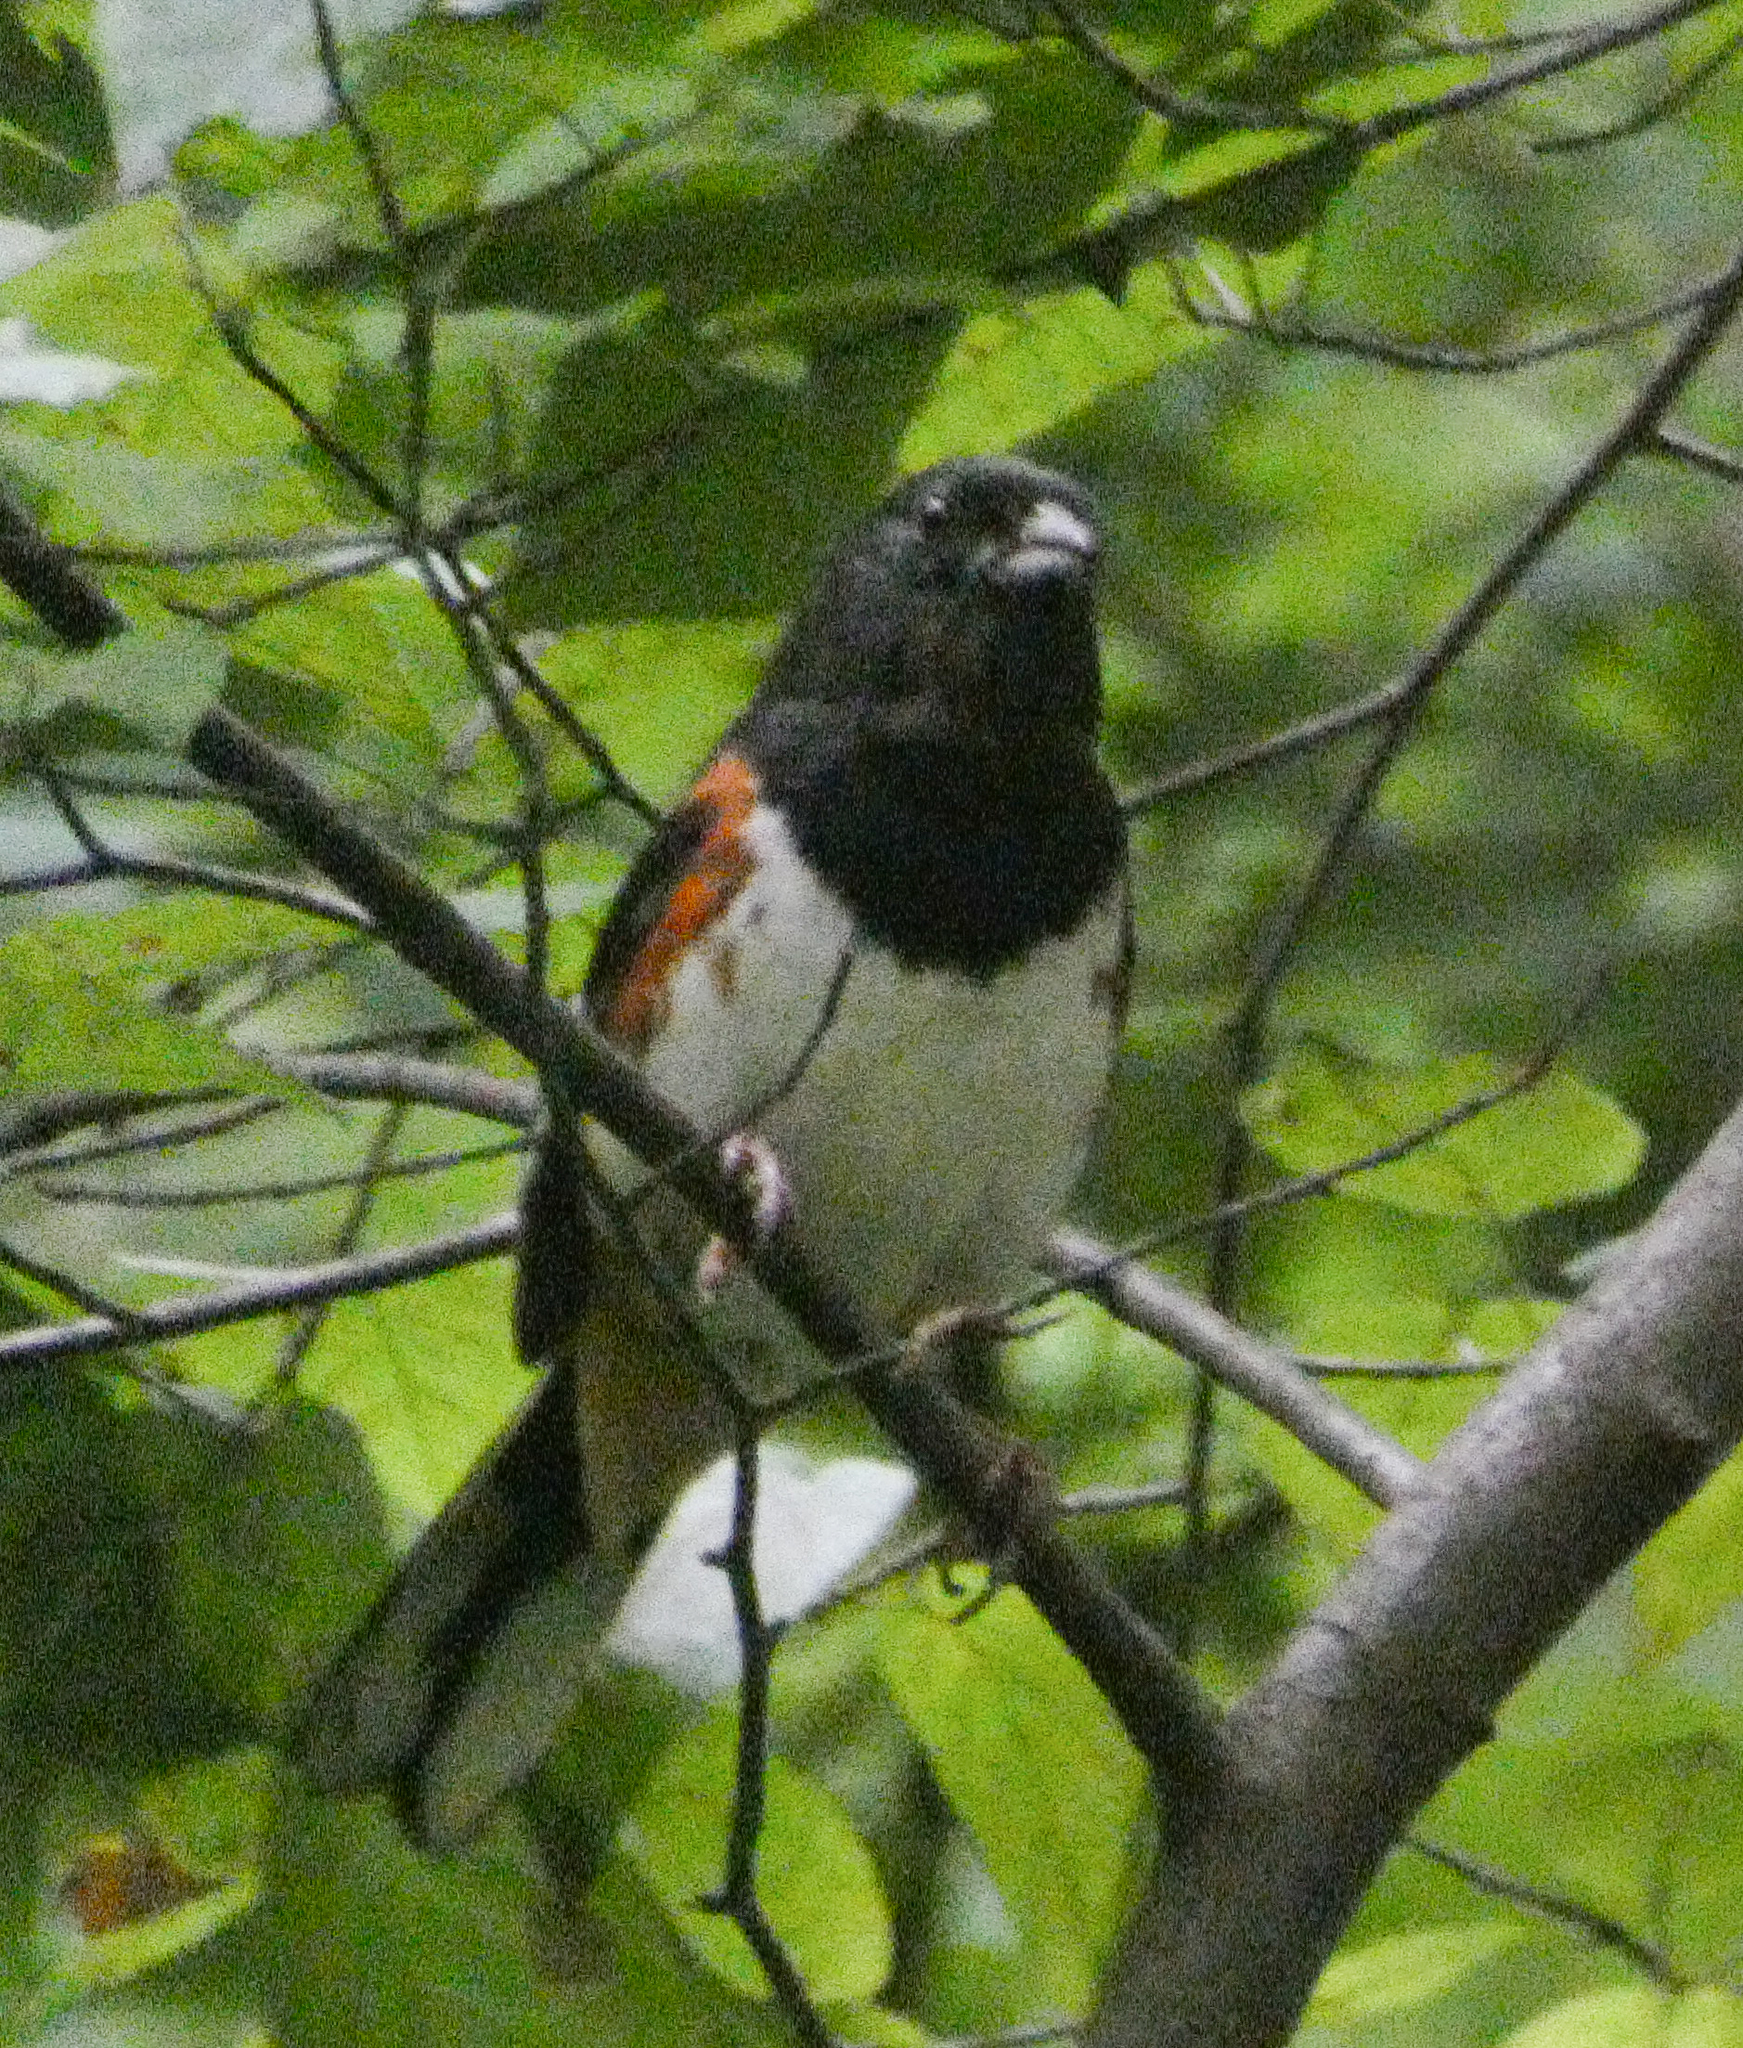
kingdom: Animalia
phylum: Chordata
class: Aves
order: Passeriformes
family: Passerellidae
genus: Pipilo
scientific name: Pipilo erythrophthalmus
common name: Eastern towhee
